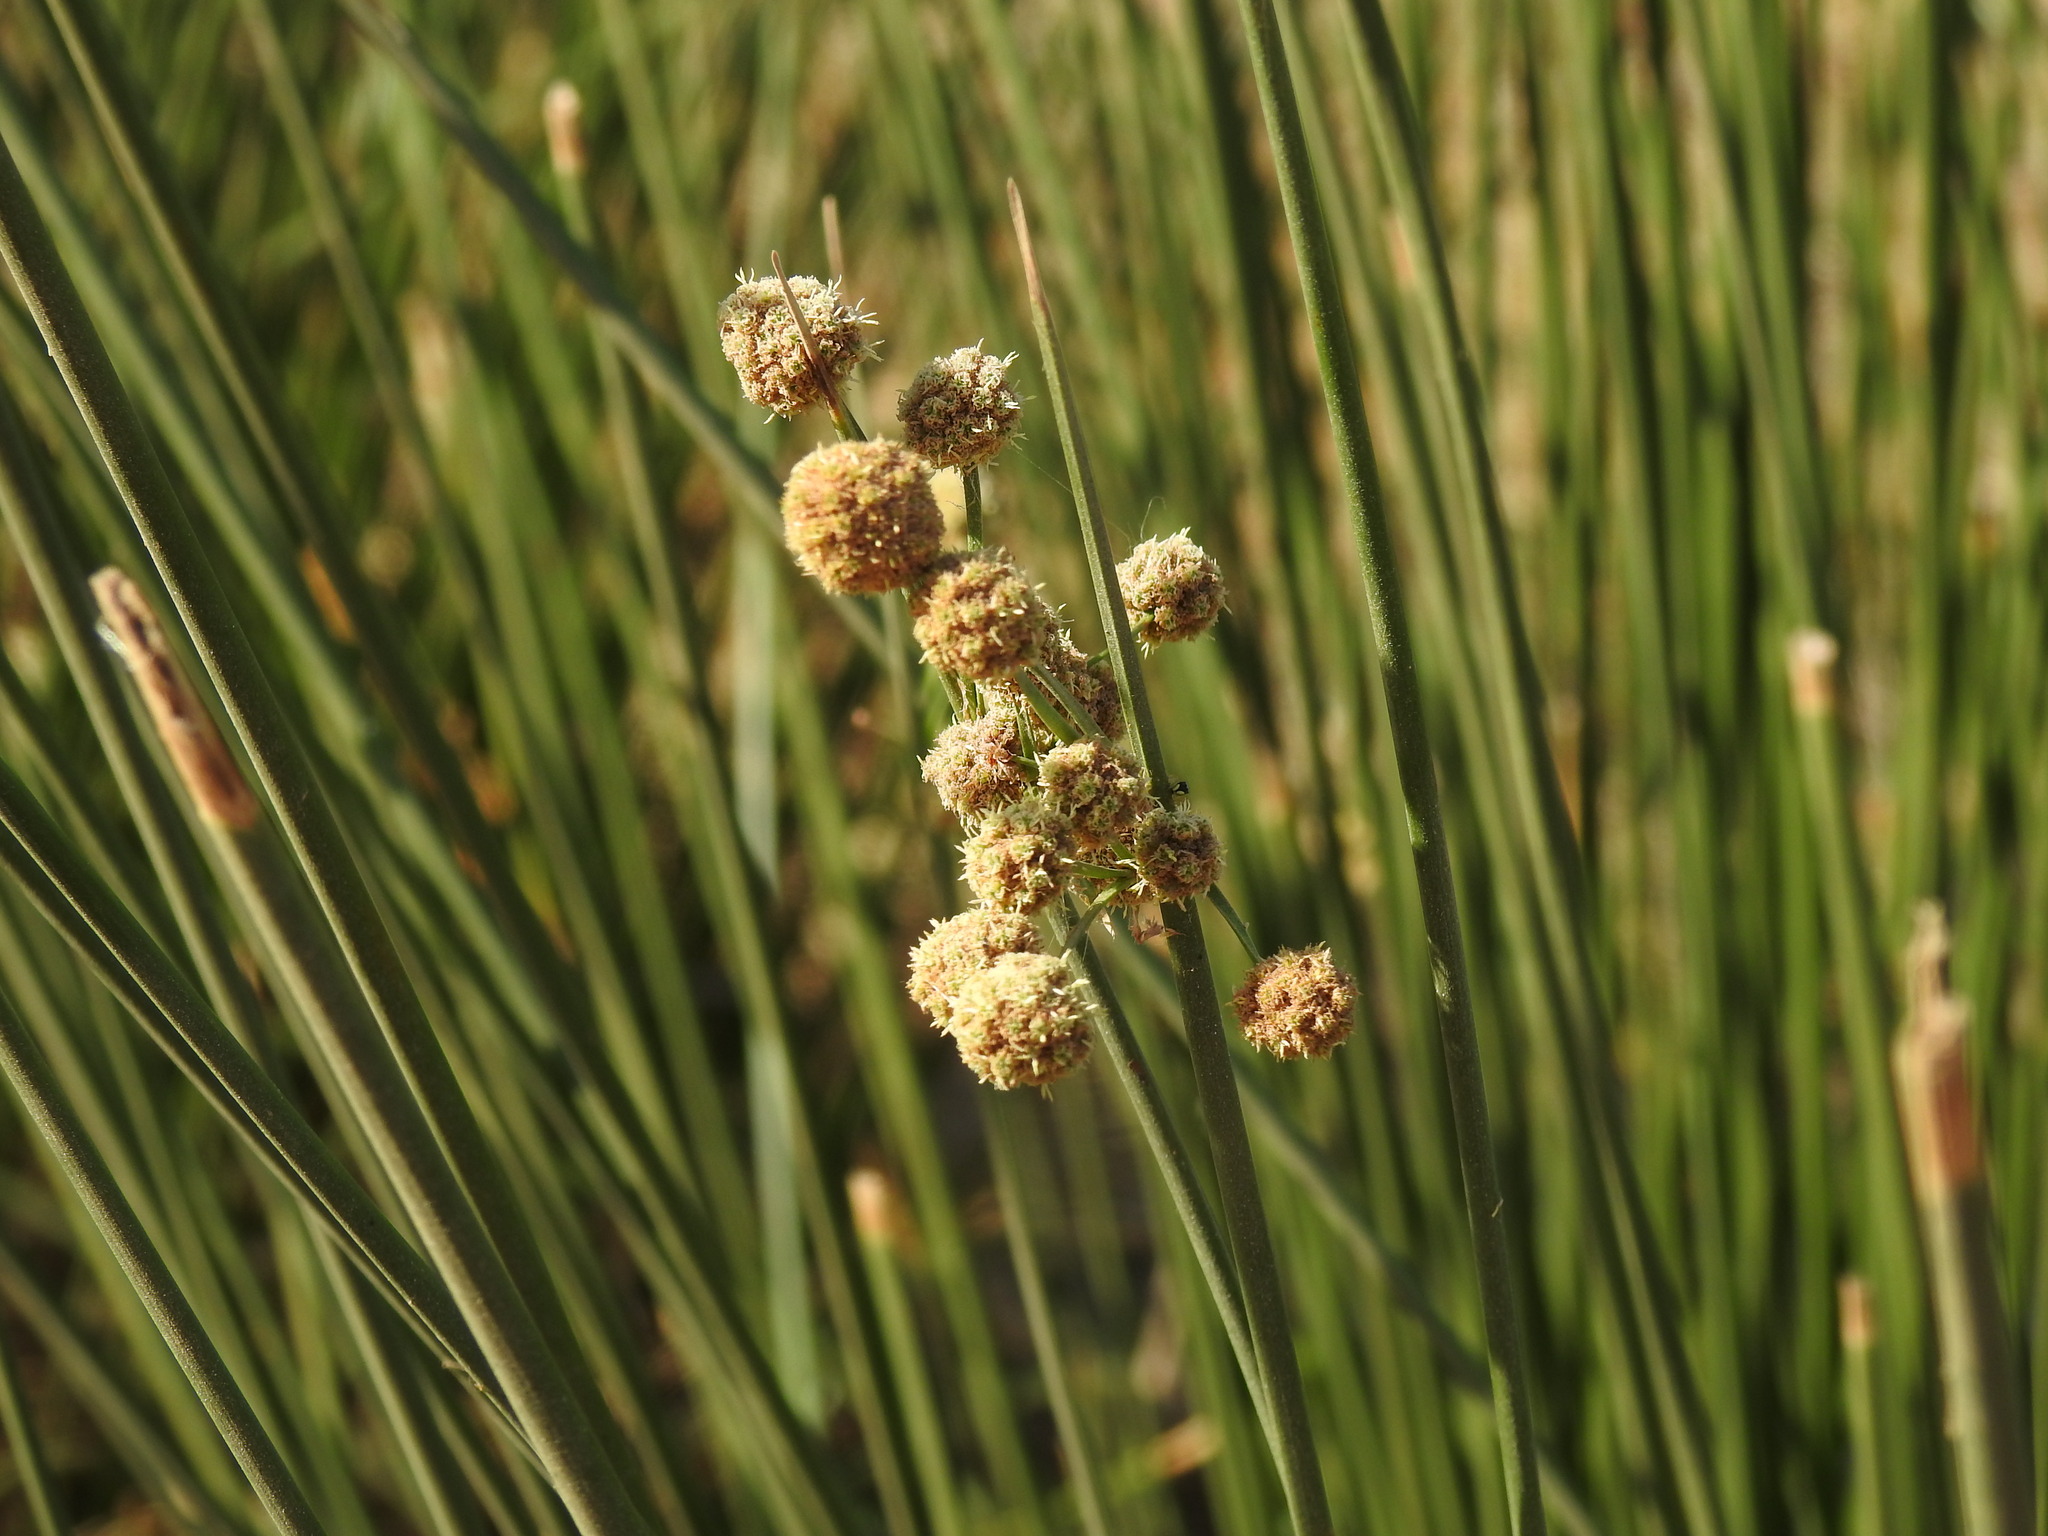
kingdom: Plantae
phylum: Tracheophyta
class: Liliopsida
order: Poales
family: Cyperaceae
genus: Scirpoides
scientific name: Scirpoides holoschoenus
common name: Round-headed club-rush
